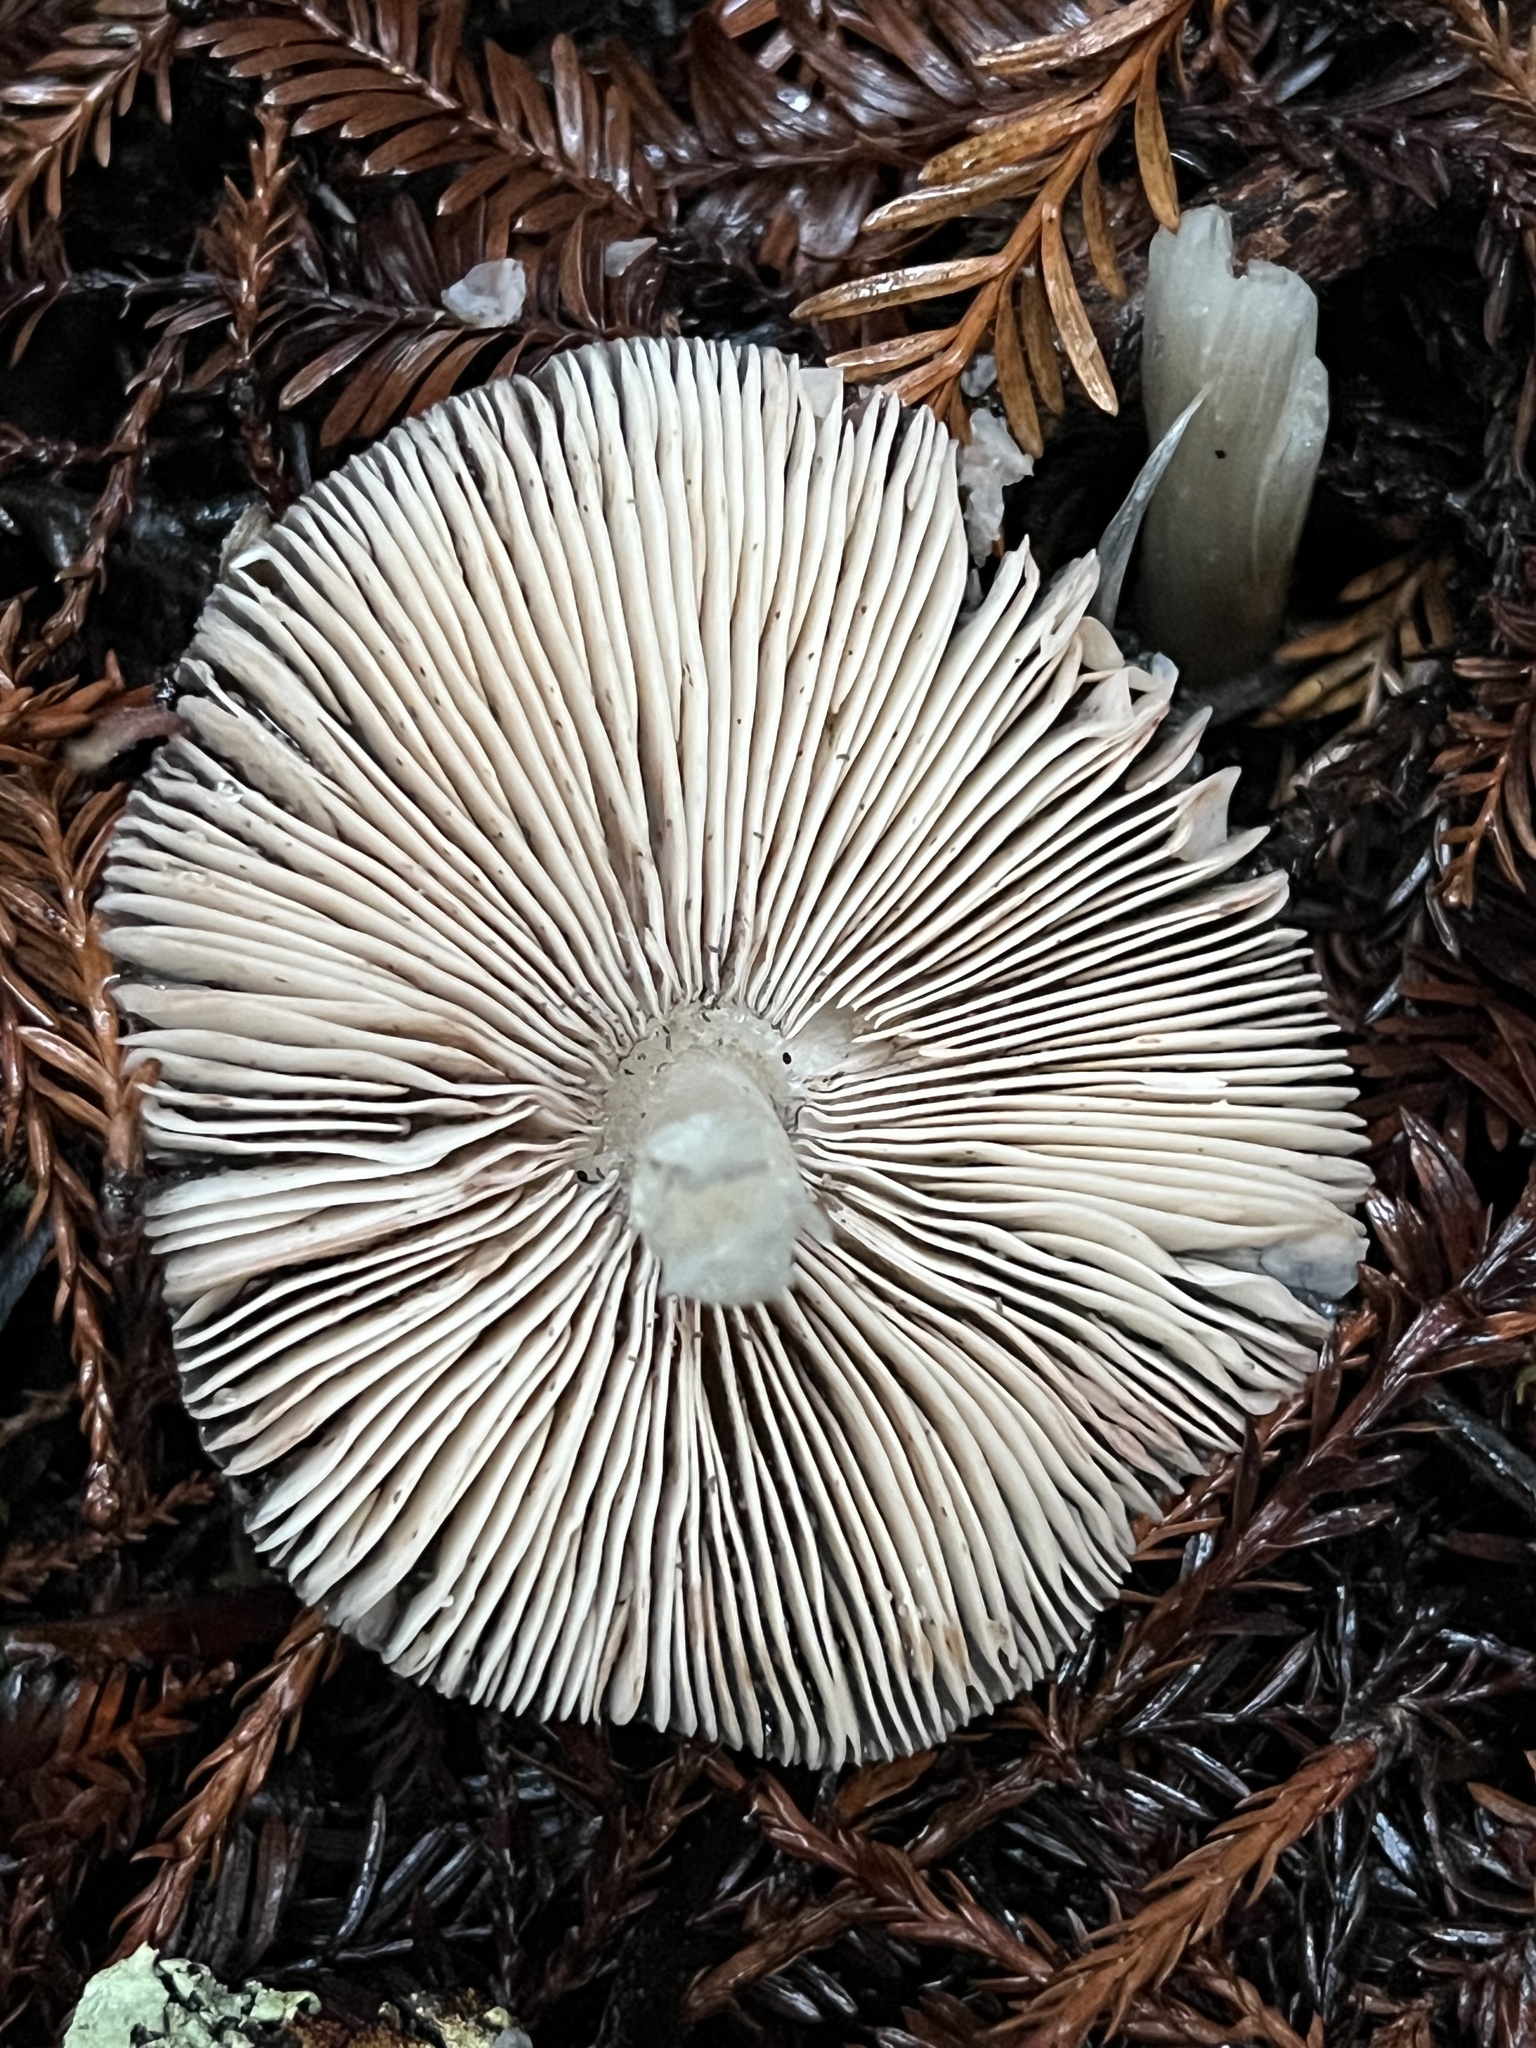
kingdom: Fungi
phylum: Basidiomycota
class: Agaricomycetes
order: Agaricales
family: Pluteaceae
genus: Pluteus
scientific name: Pluteus exilis
